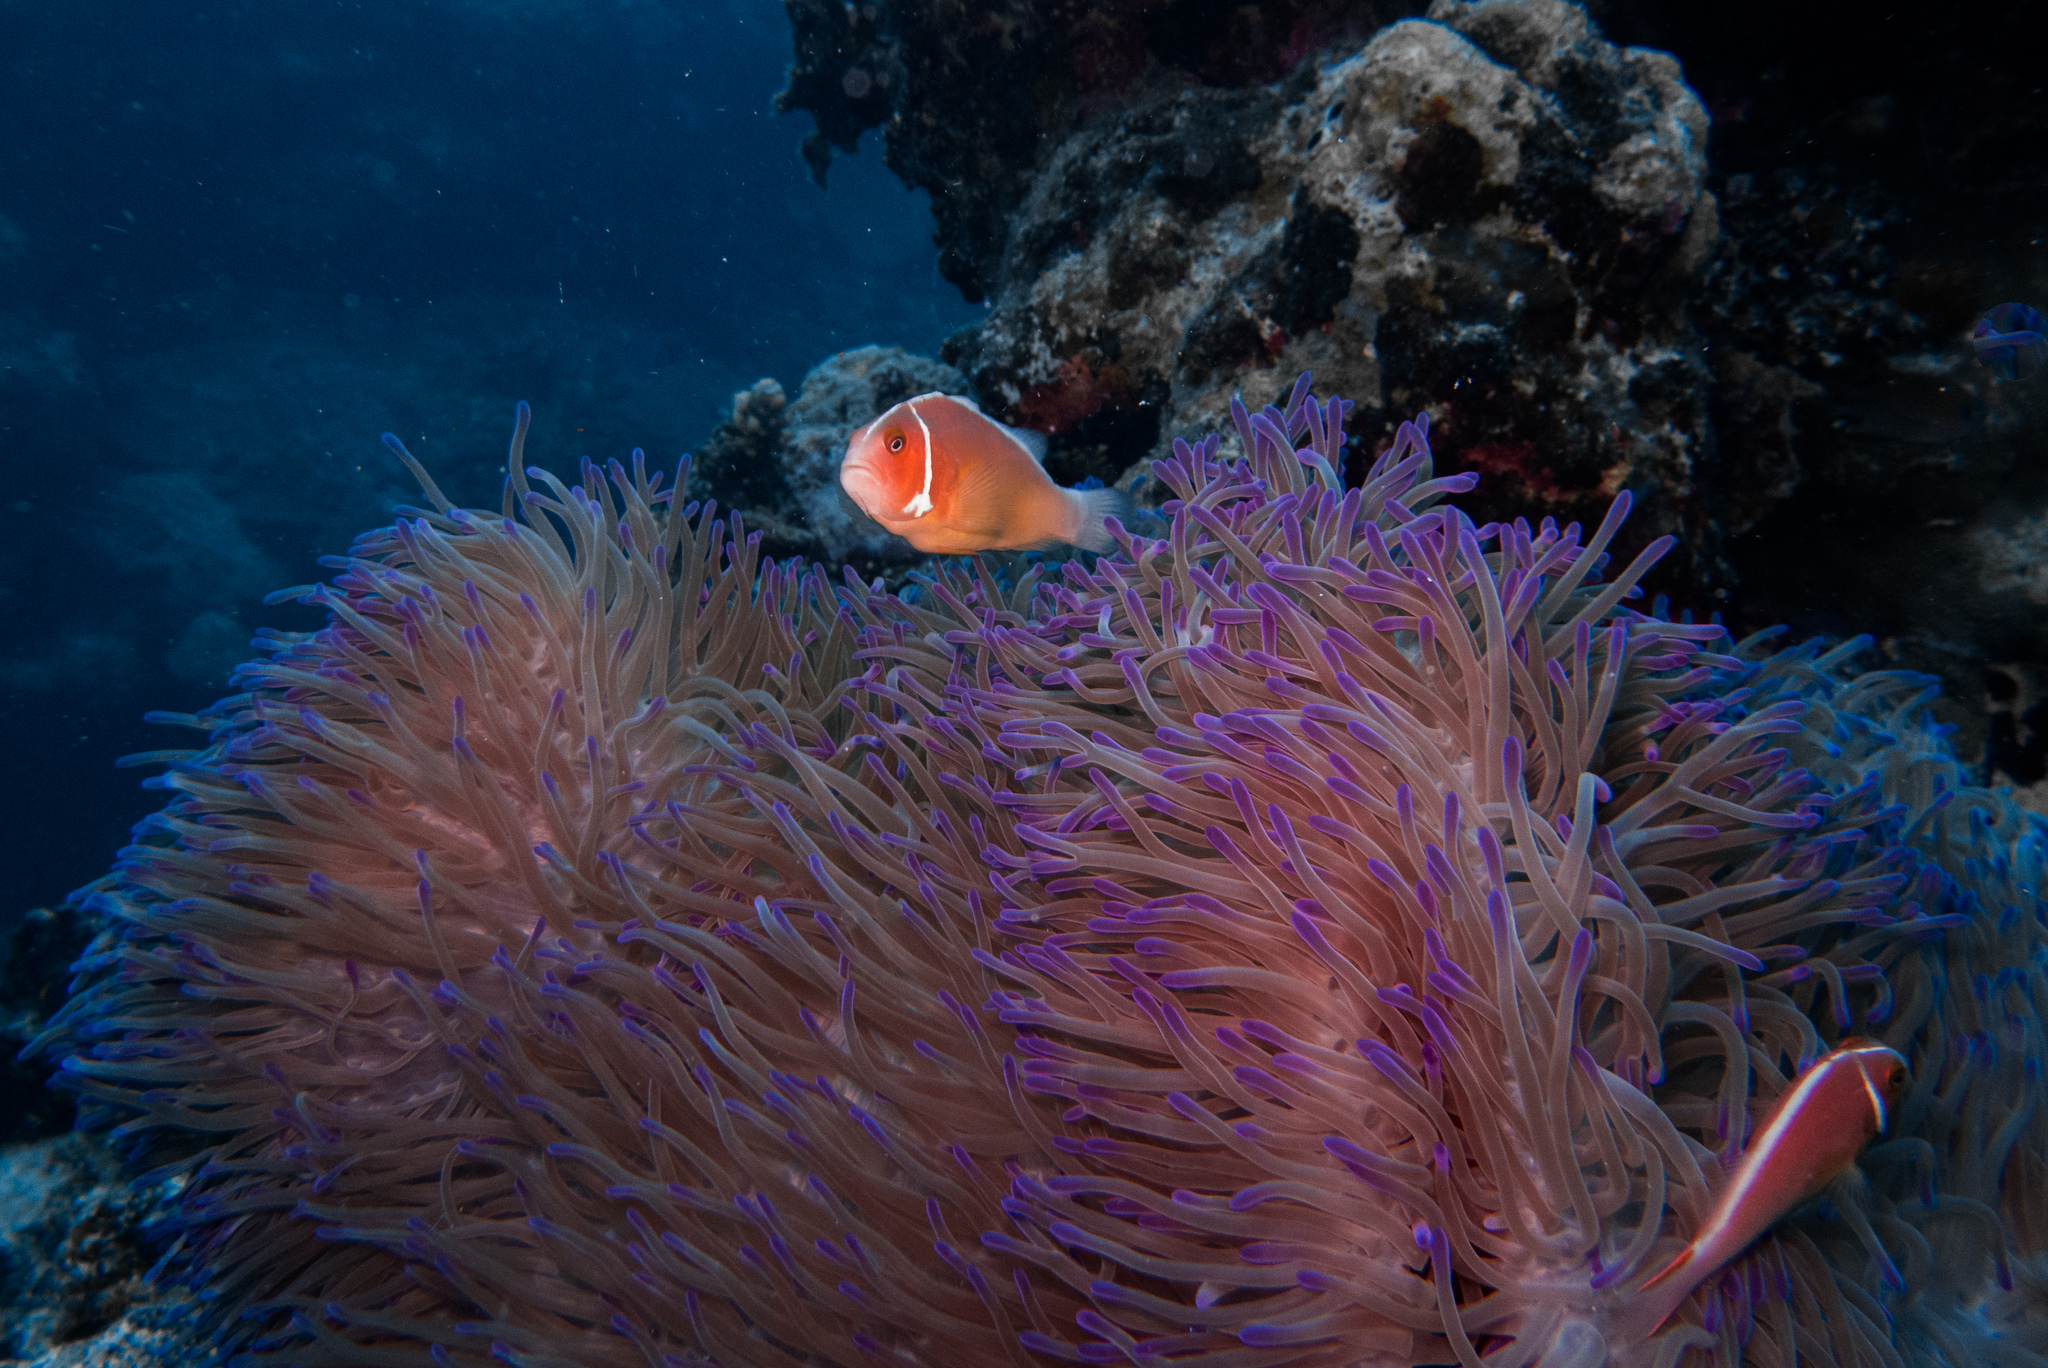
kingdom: Animalia
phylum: Cnidaria
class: Anthozoa
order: Actiniaria
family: Stichodactylidae
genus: Radianthus
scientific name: Radianthus magnifica
